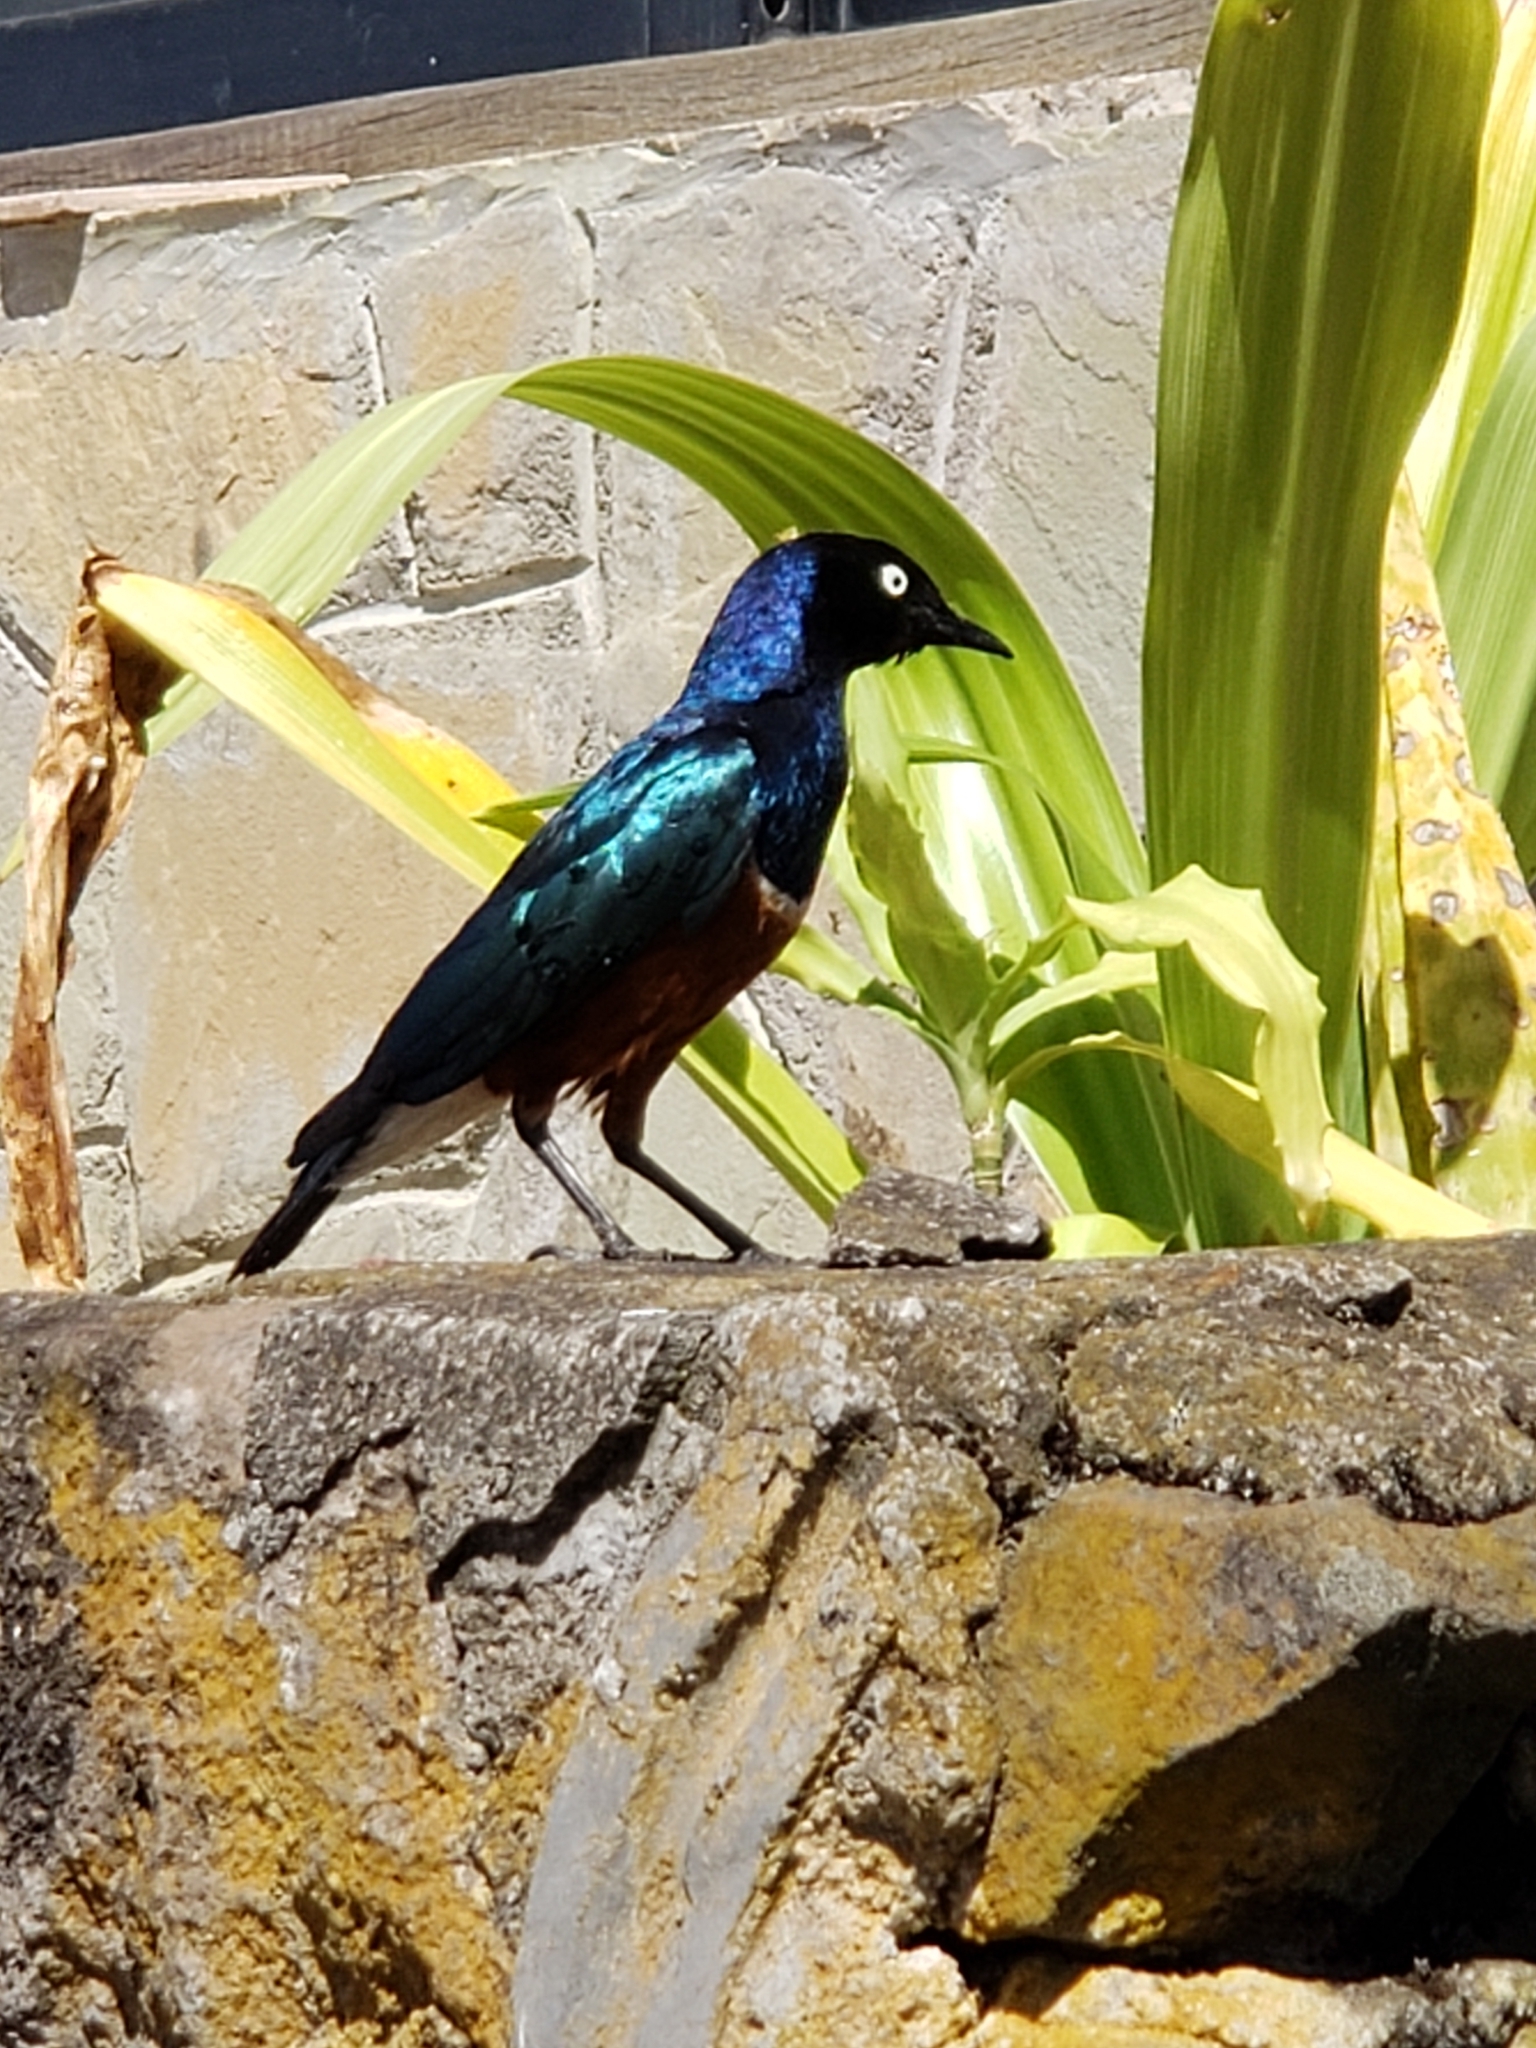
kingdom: Animalia
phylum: Chordata
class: Aves
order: Passeriformes
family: Sturnidae
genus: Lamprotornis
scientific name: Lamprotornis superbus
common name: Superb starling
